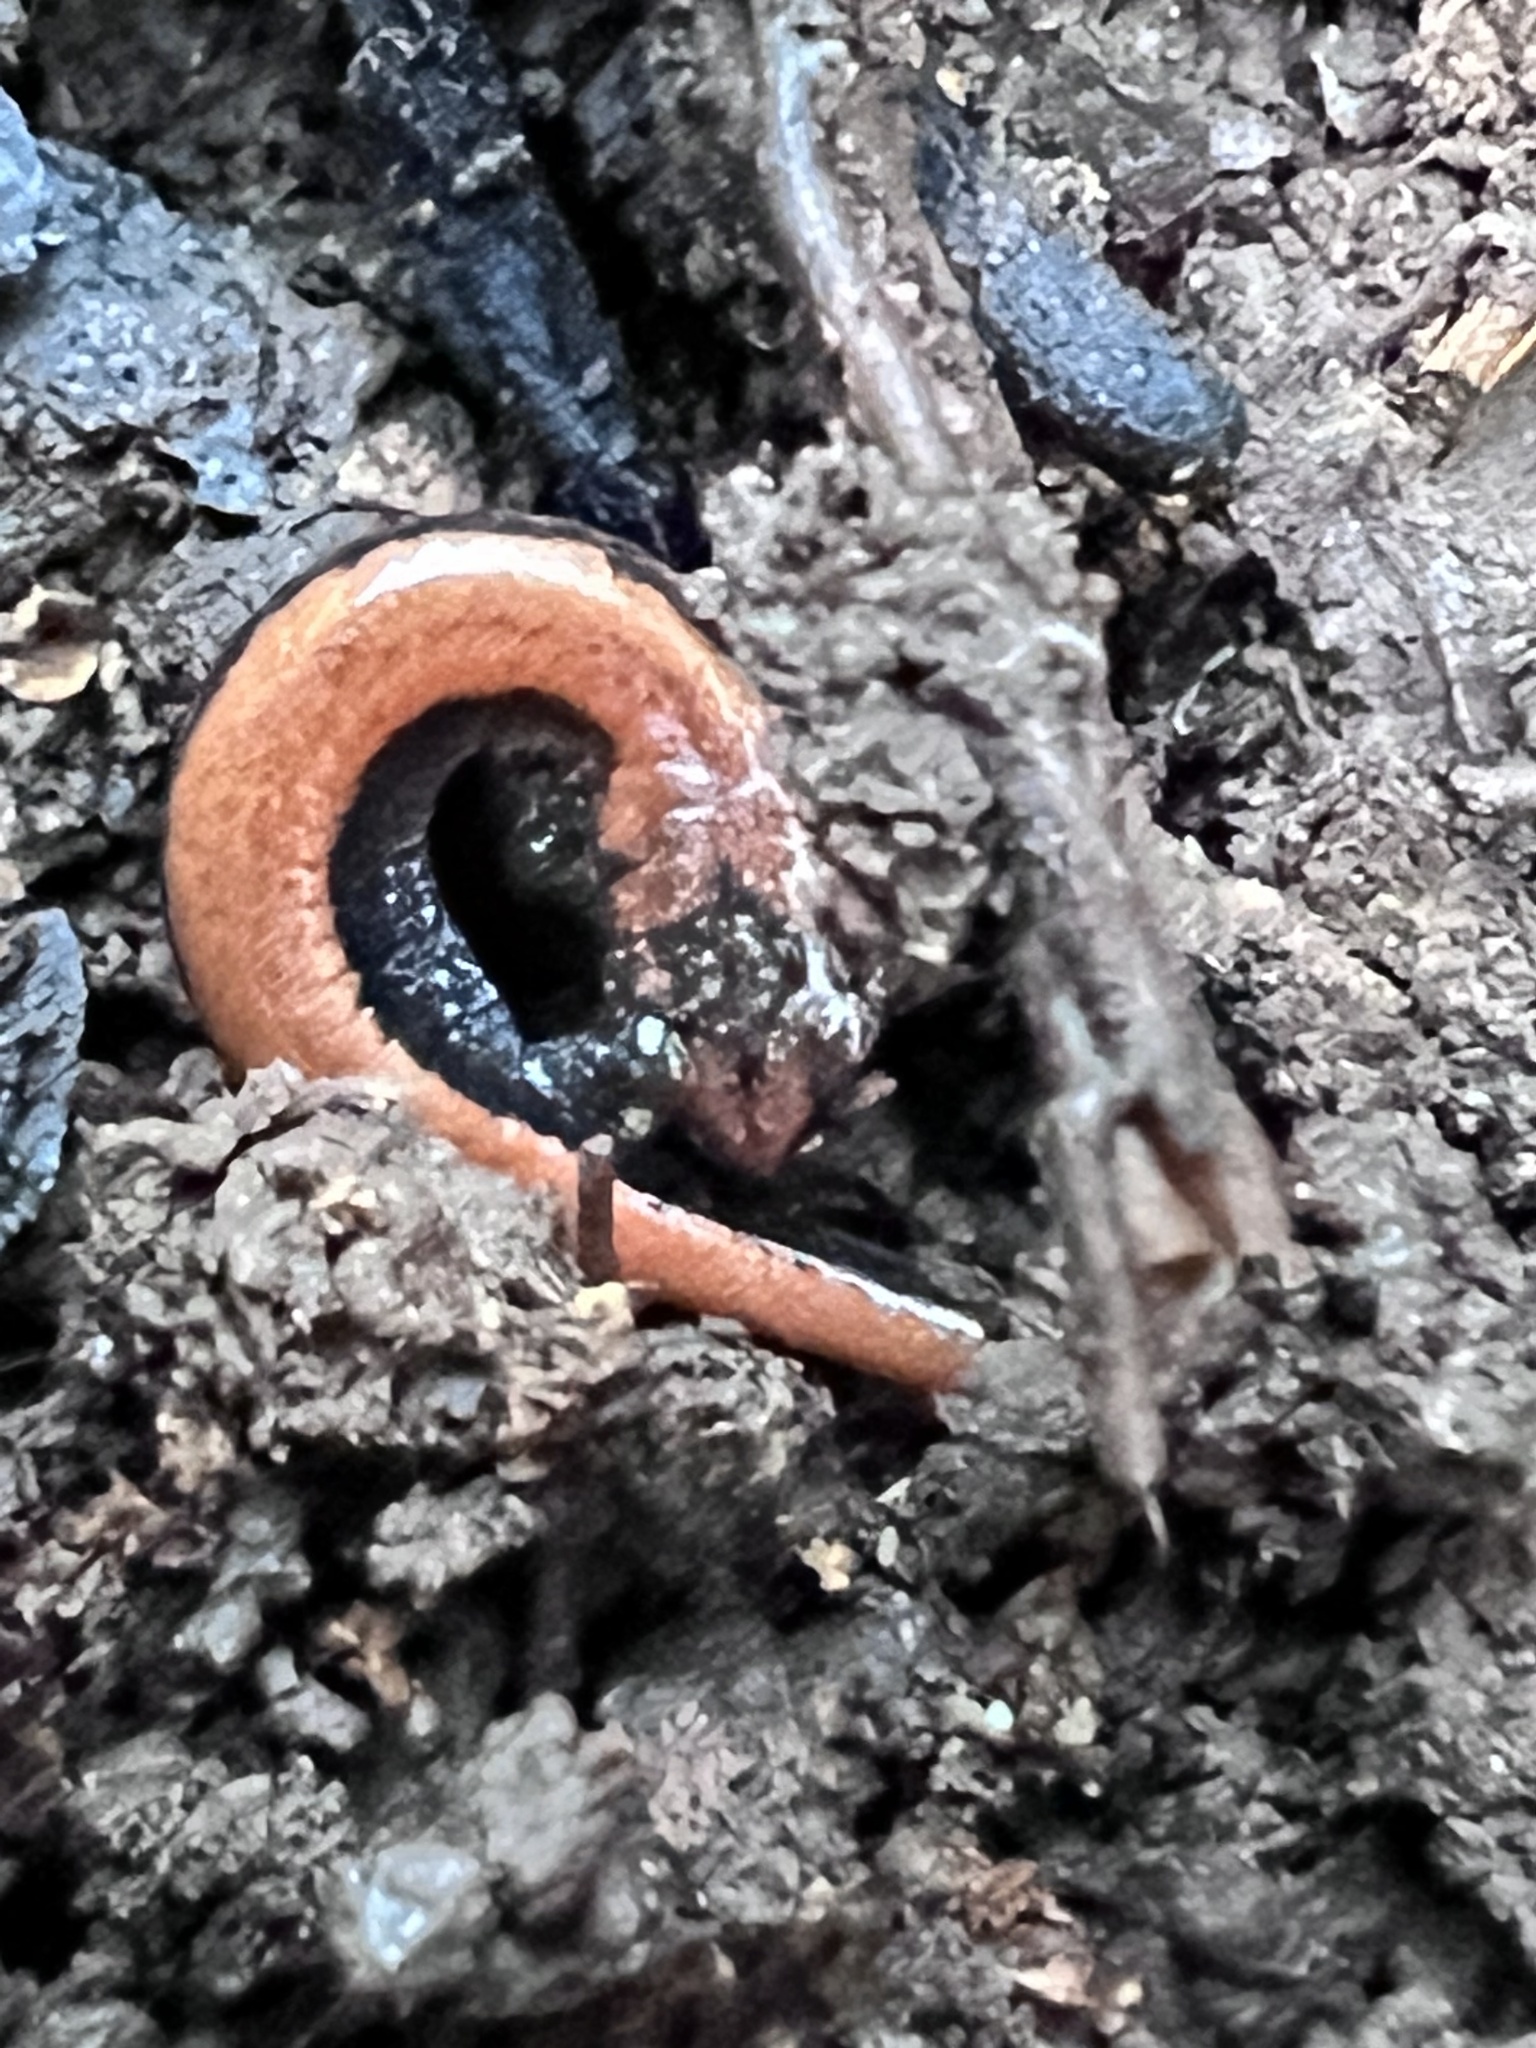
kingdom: Animalia
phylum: Chordata
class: Amphibia
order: Caudata
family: Plethodontidae
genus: Plethodon
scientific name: Plethodon cinereus
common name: Redback salamander
